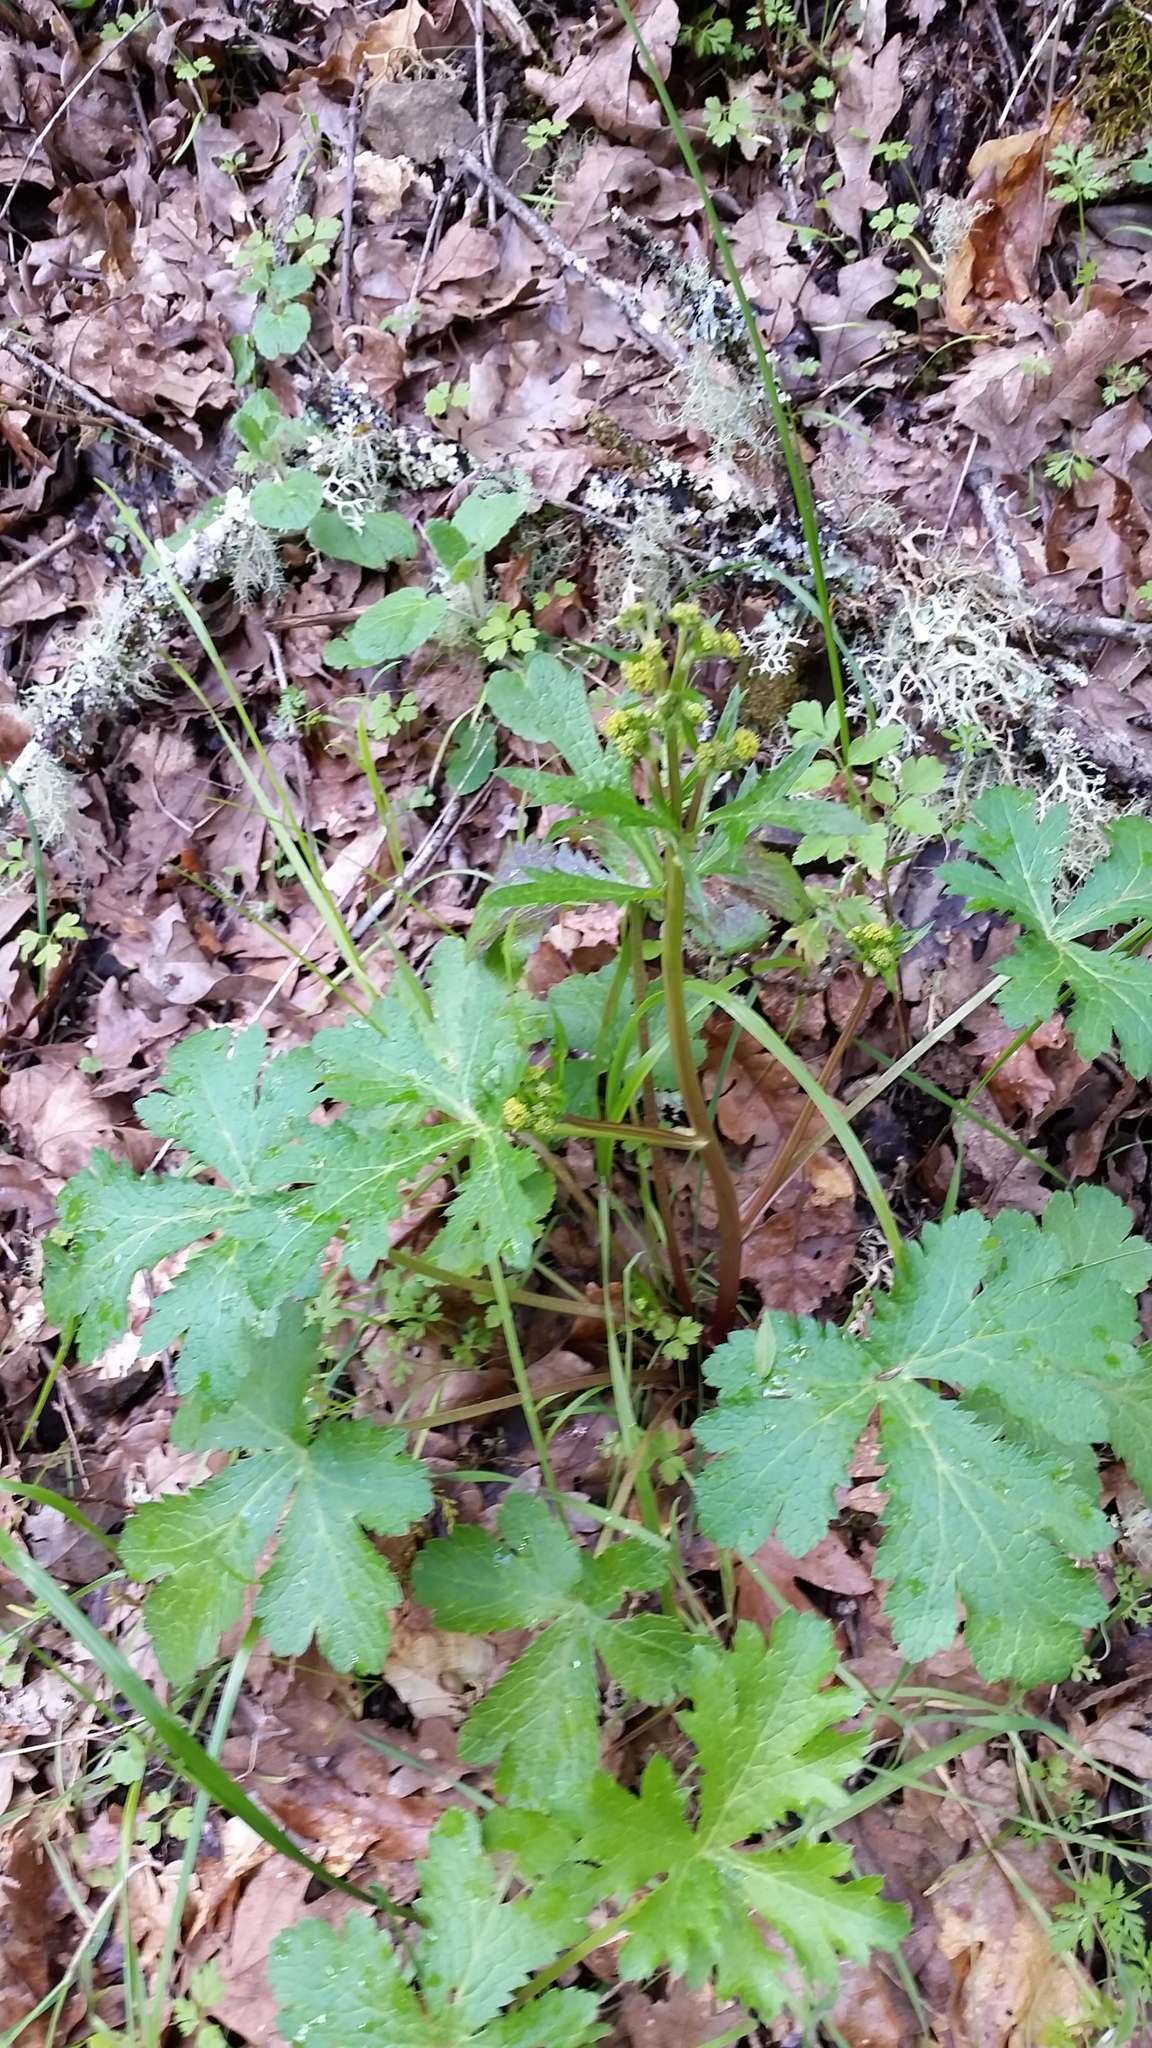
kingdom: Plantae
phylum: Tracheophyta
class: Magnoliopsida
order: Apiales
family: Apiaceae
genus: Sanicula
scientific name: Sanicula crassicaulis
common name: Western snakeroot
